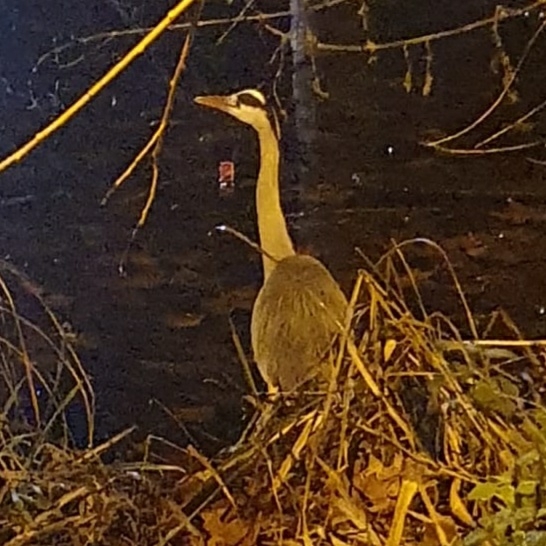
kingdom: Animalia
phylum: Chordata
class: Aves
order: Pelecaniformes
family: Ardeidae
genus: Ardea
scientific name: Ardea cinerea
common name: Grey heron
